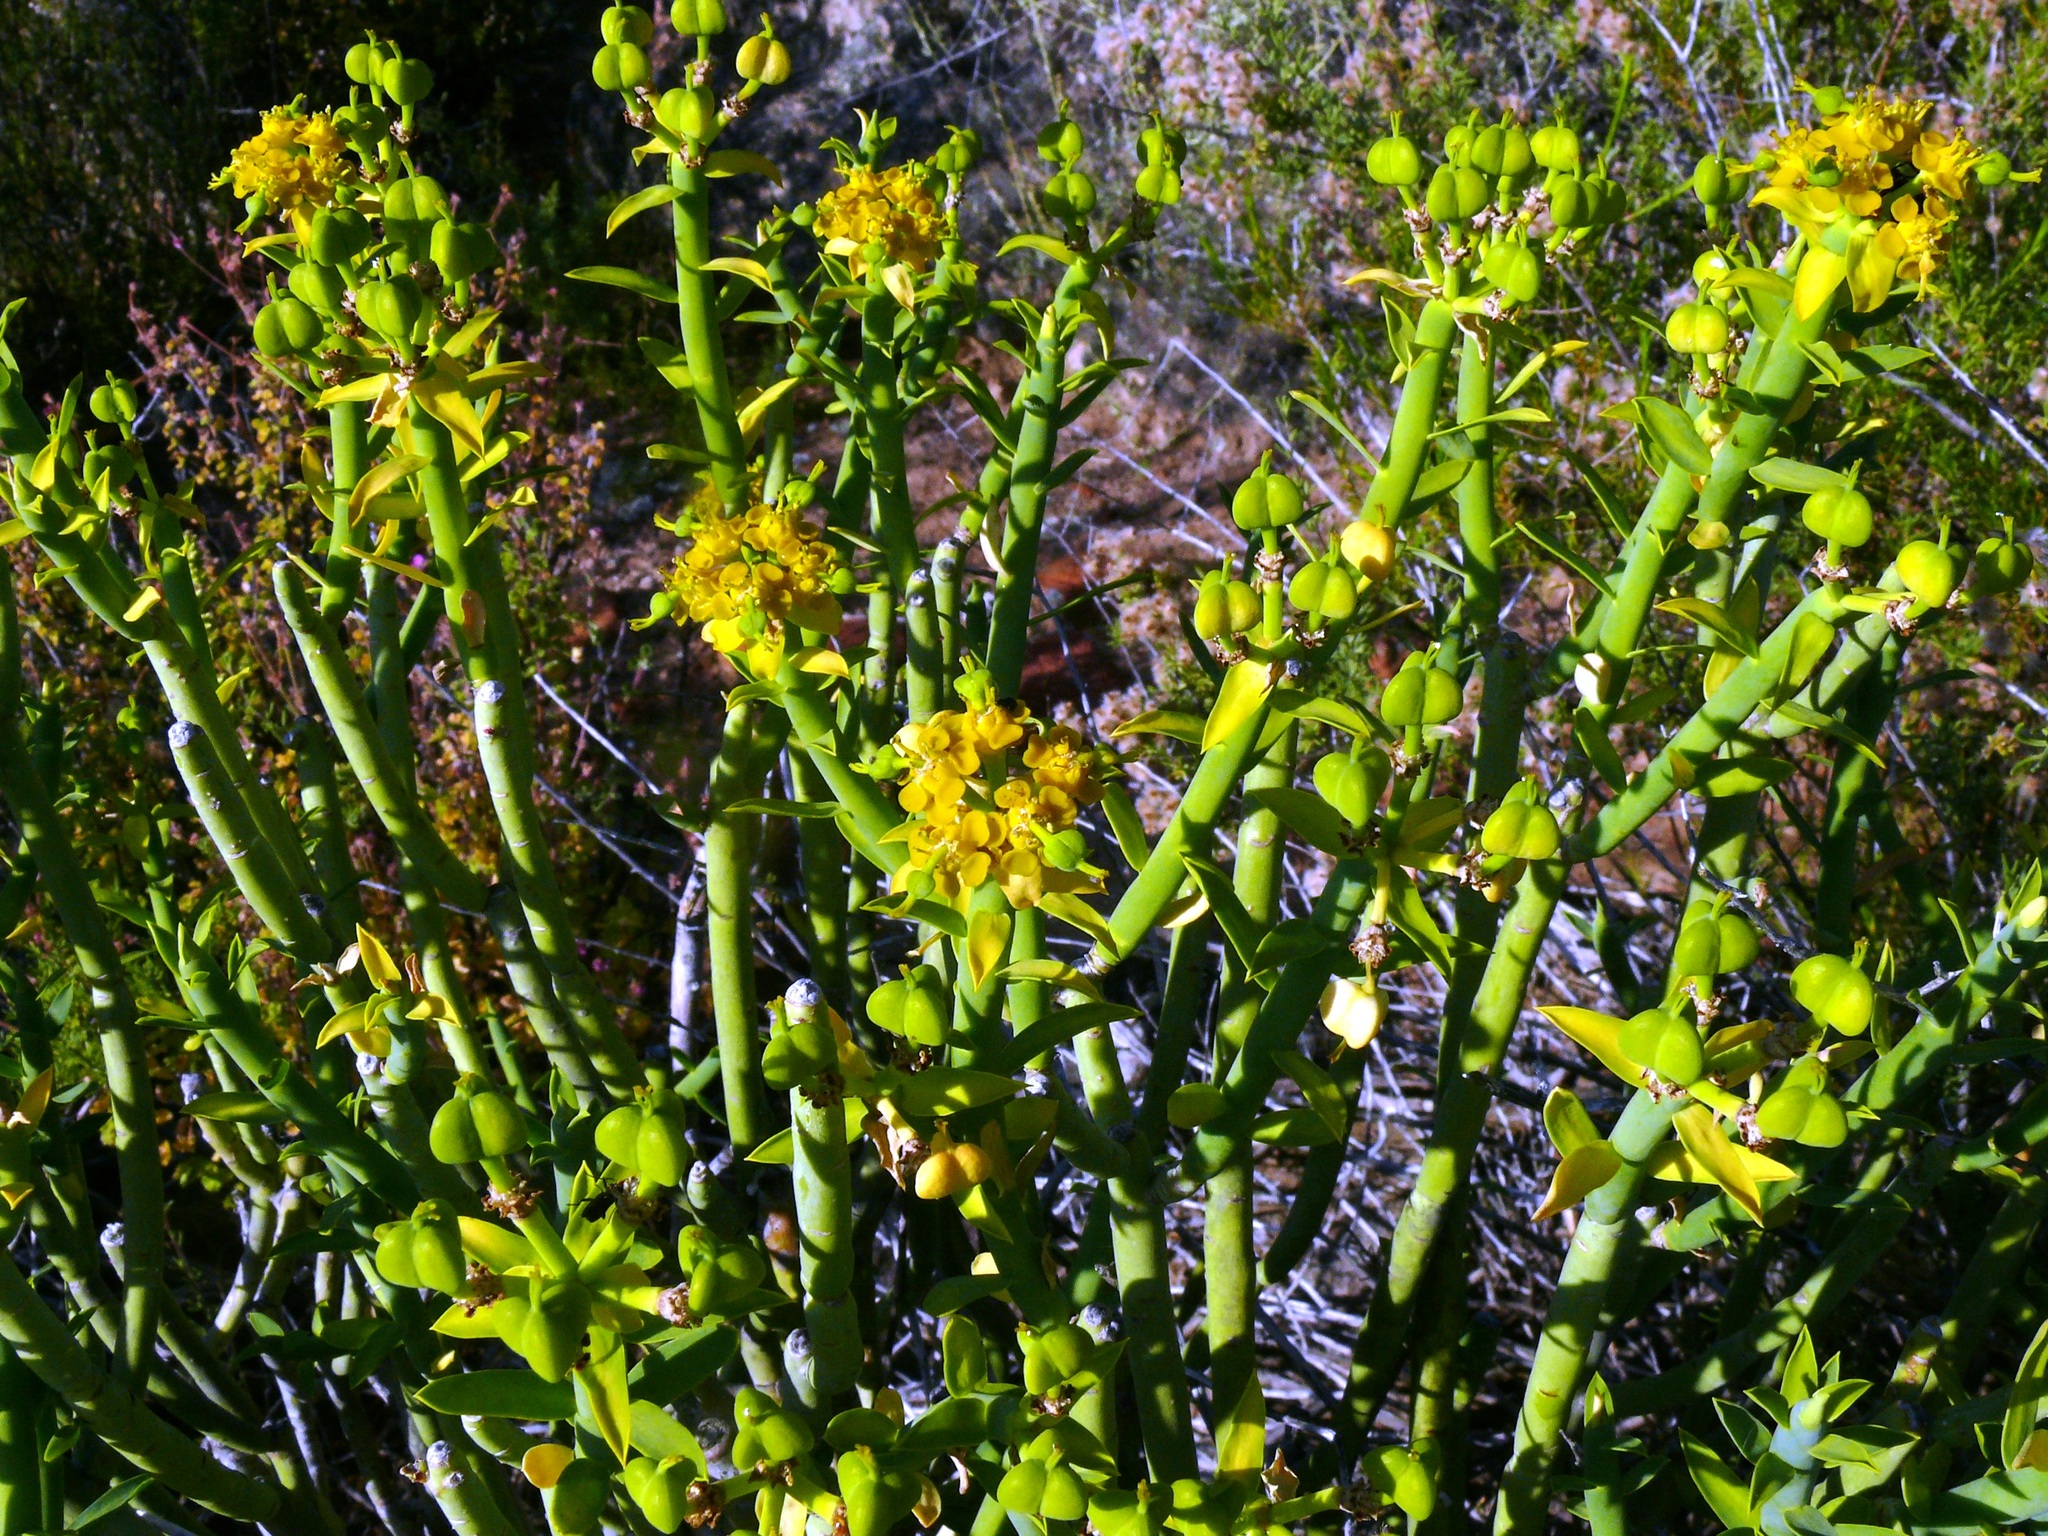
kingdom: Plantae
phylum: Tracheophyta
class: Magnoliopsida
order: Malpighiales
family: Euphorbiaceae
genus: Euphorbia
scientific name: Euphorbia mauritanica
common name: Jackal's-food
